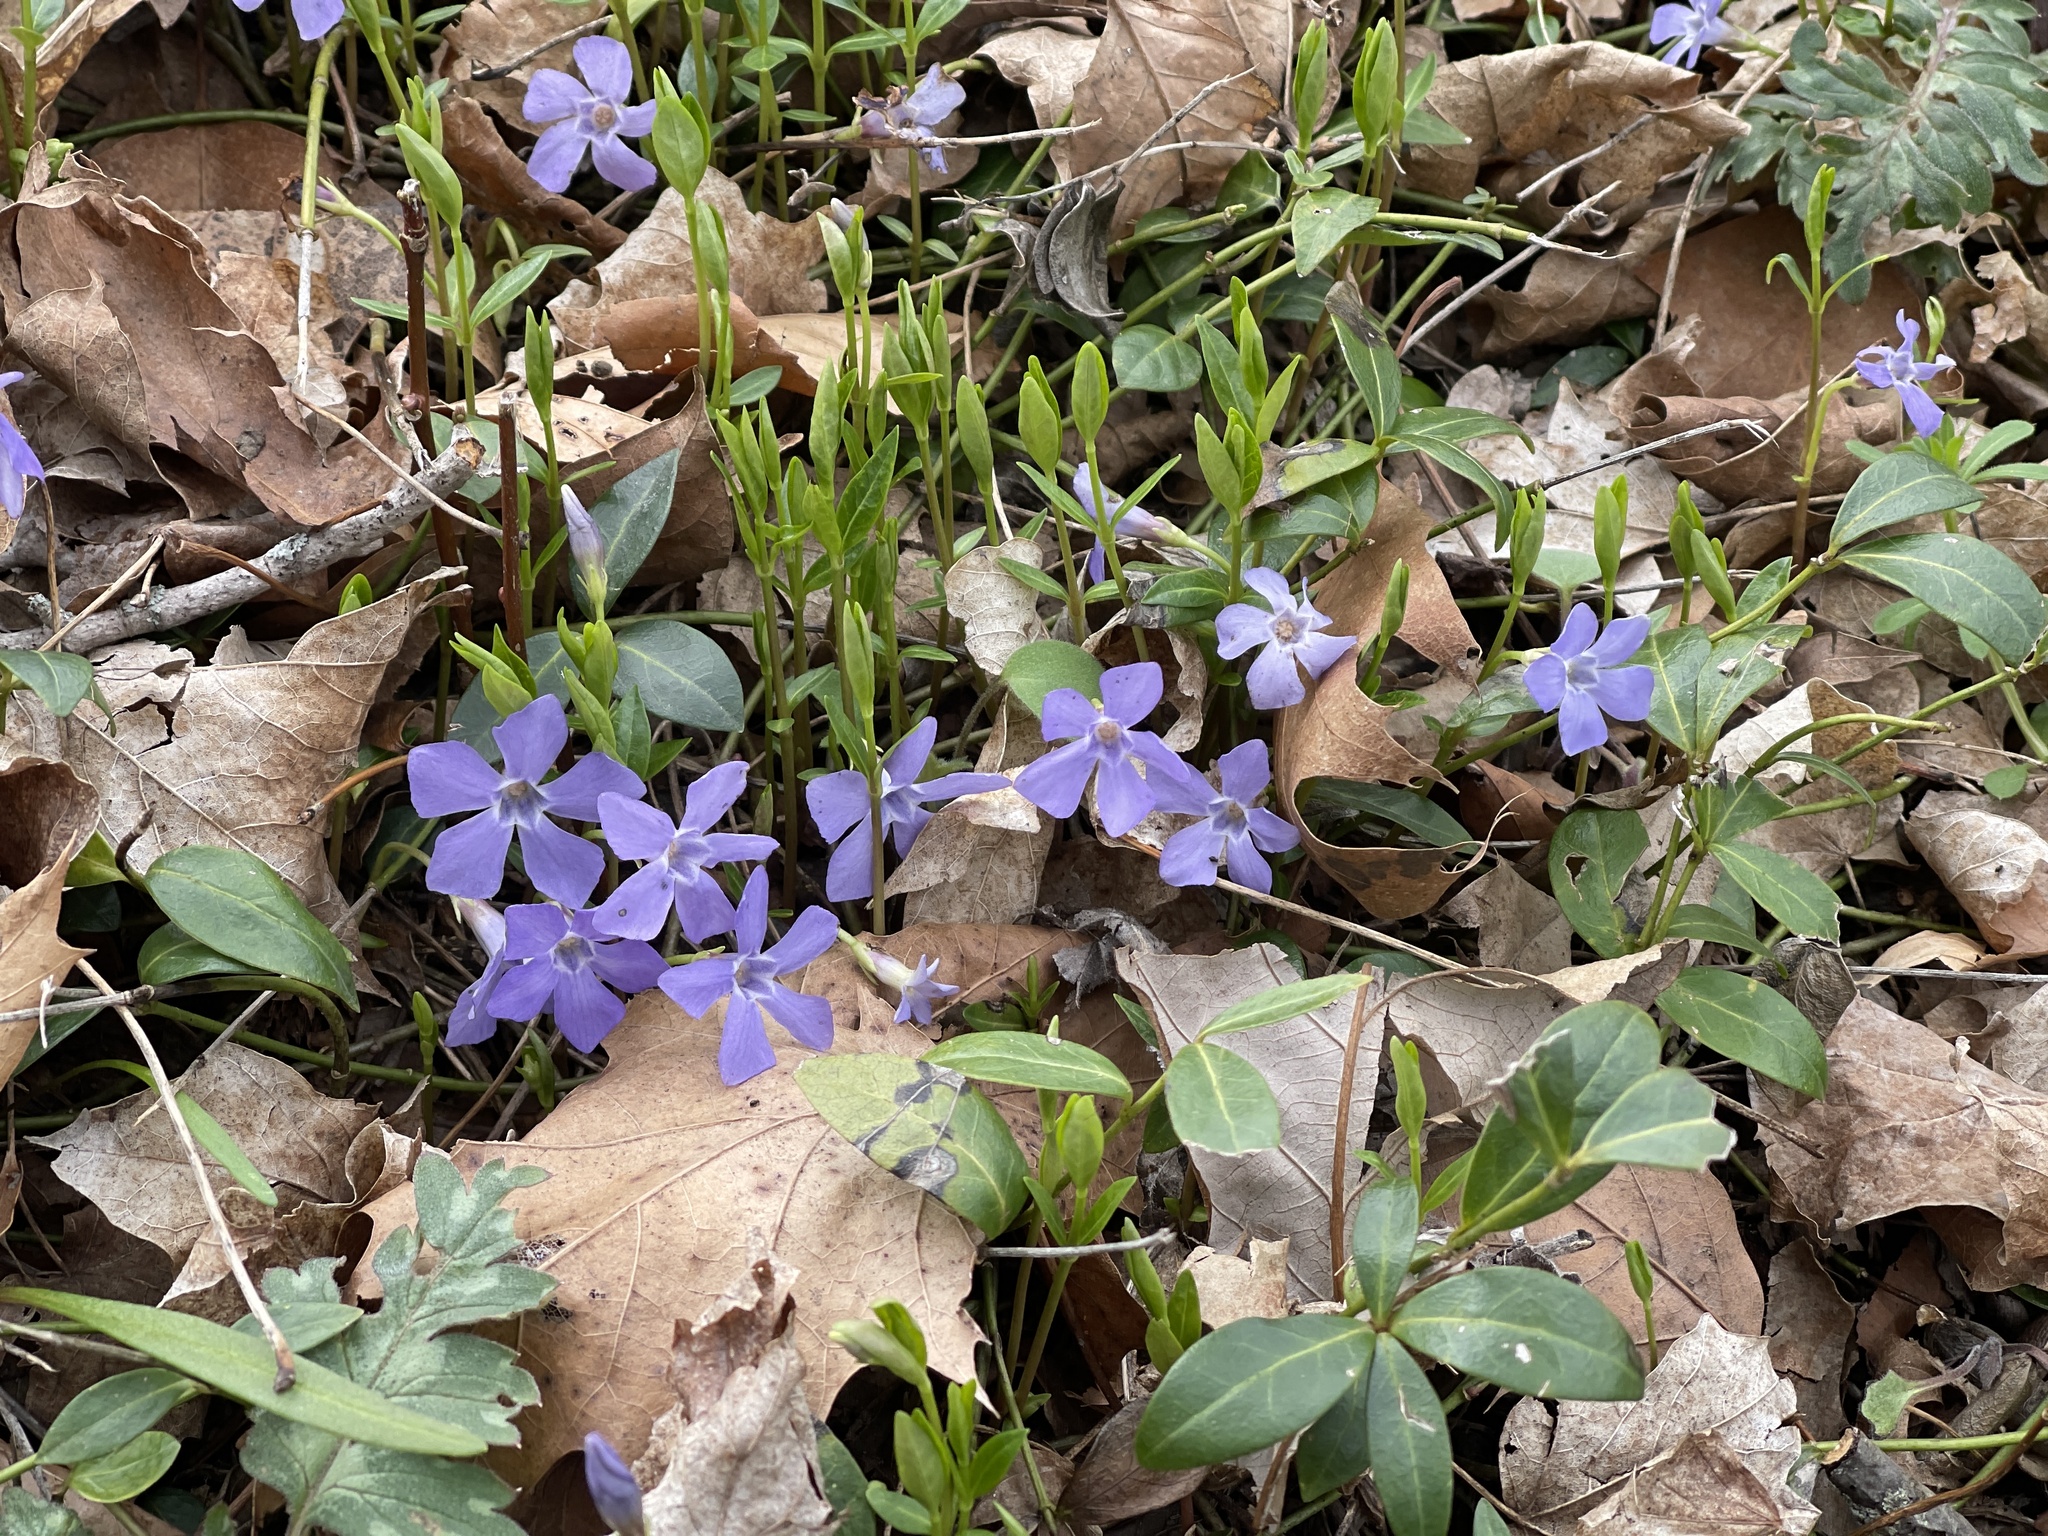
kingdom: Plantae
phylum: Tracheophyta
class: Magnoliopsida
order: Gentianales
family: Apocynaceae
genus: Vinca
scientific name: Vinca minor
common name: Lesser periwinkle
